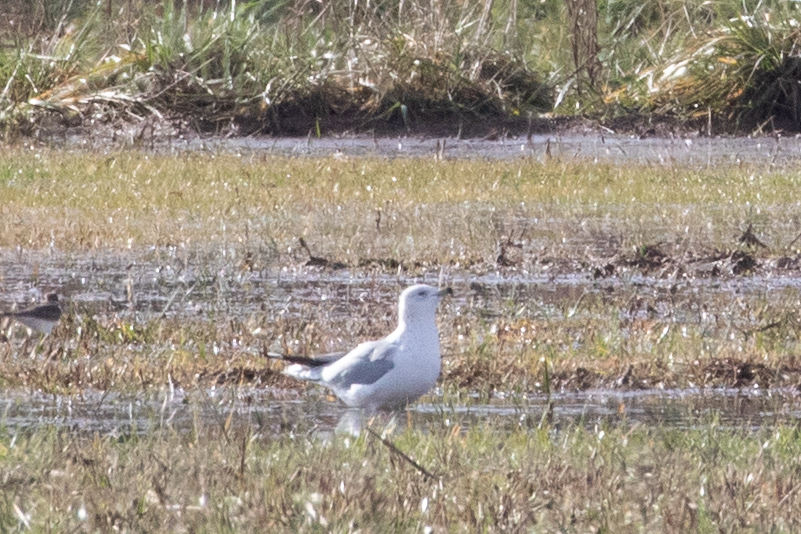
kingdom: Animalia
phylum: Chordata
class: Aves
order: Charadriiformes
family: Laridae
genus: Larus
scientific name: Larus delawarensis
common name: Ring-billed gull
